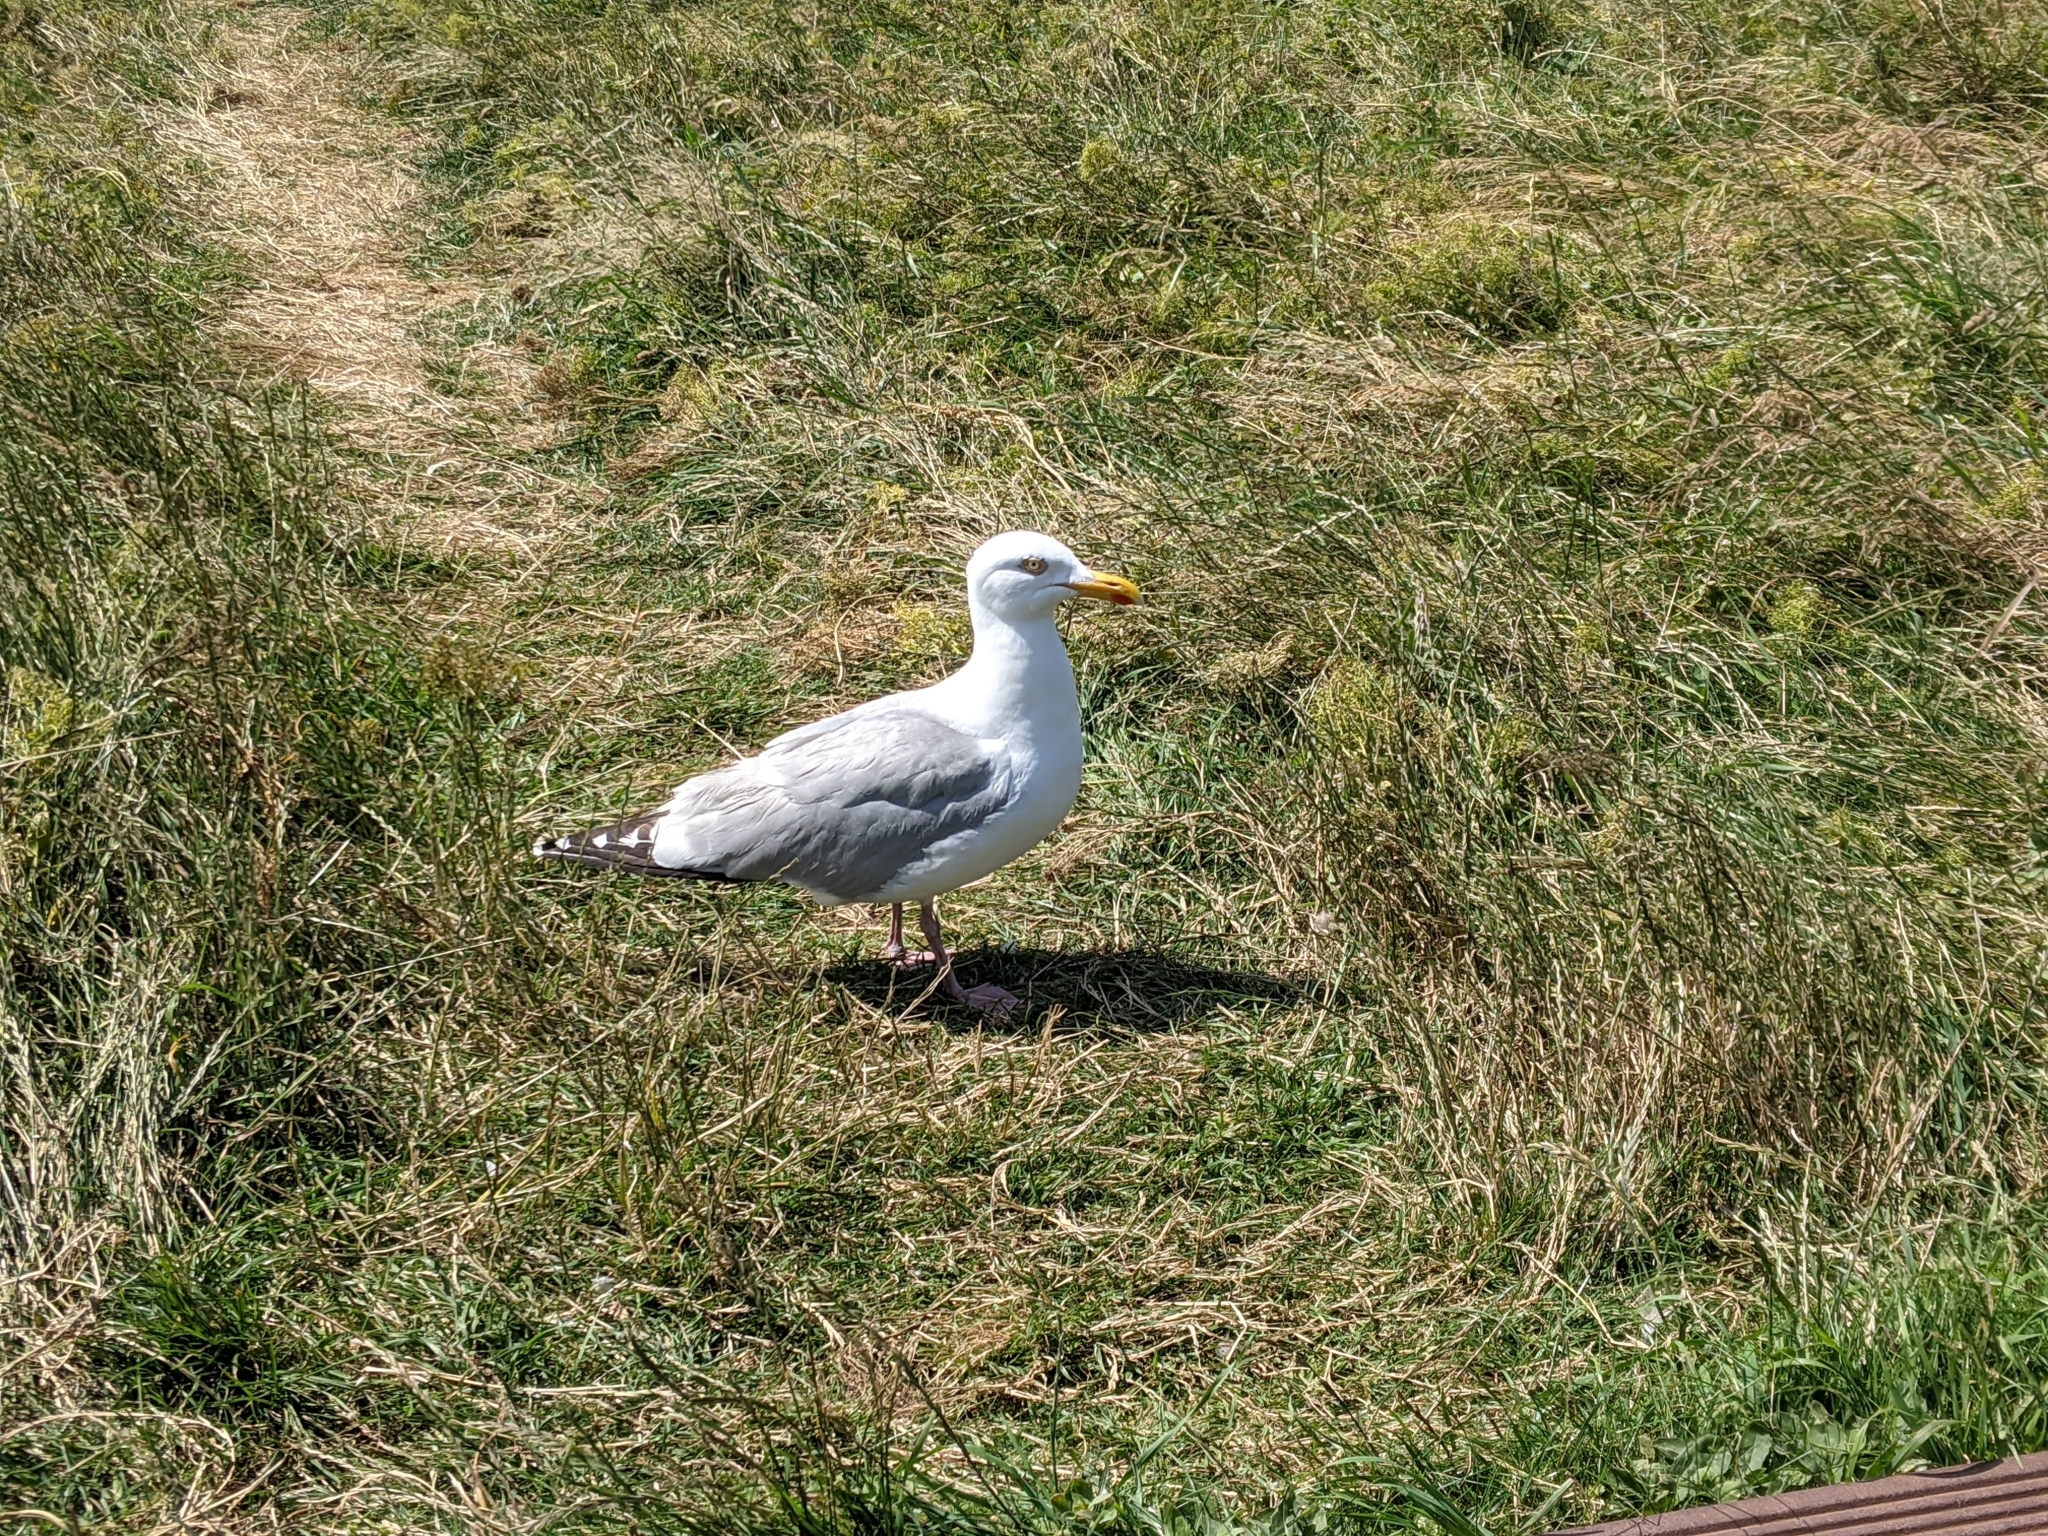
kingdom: Animalia
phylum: Chordata
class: Aves
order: Charadriiformes
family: Laridae
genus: Larus
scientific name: Larus argentatus
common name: Herring gull
